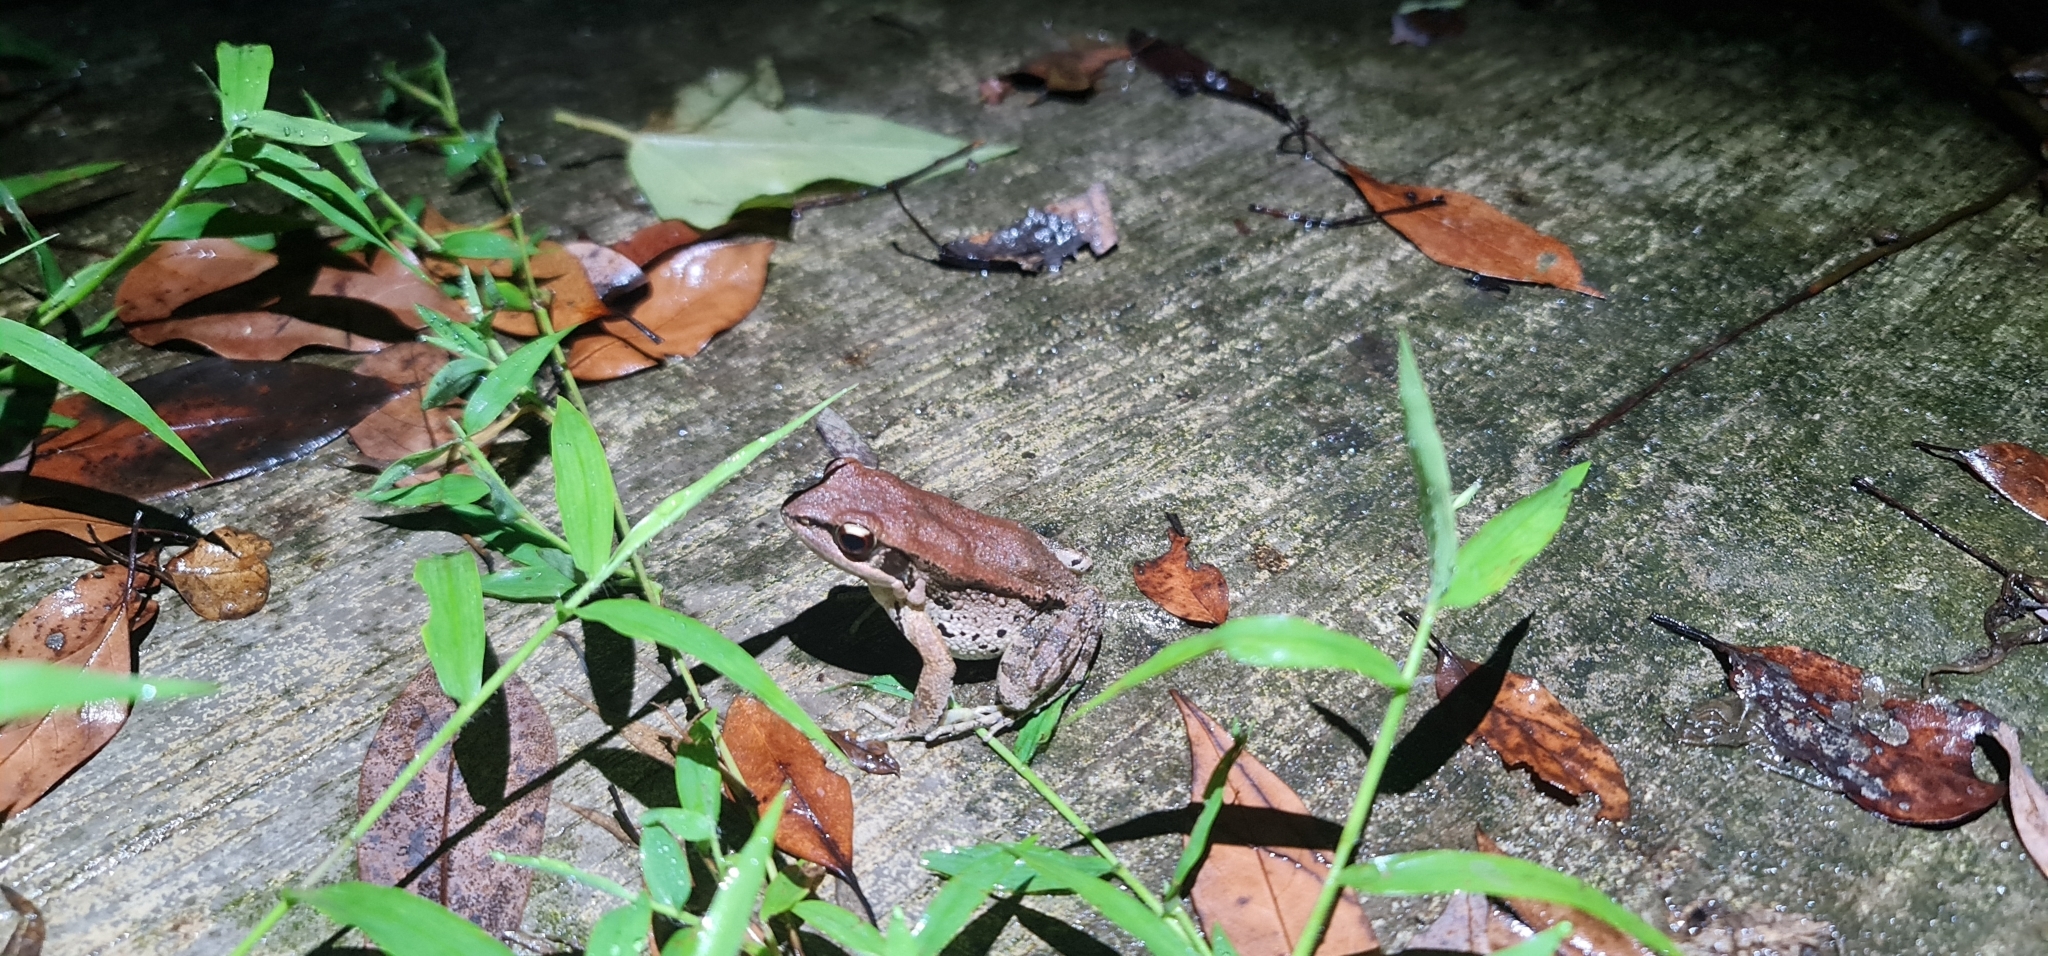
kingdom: Animalia
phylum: Chordata
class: Amphibia
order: Anura
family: Ranidae
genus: Hylarana
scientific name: Hylarana latouchii
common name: Broad-folded frog
